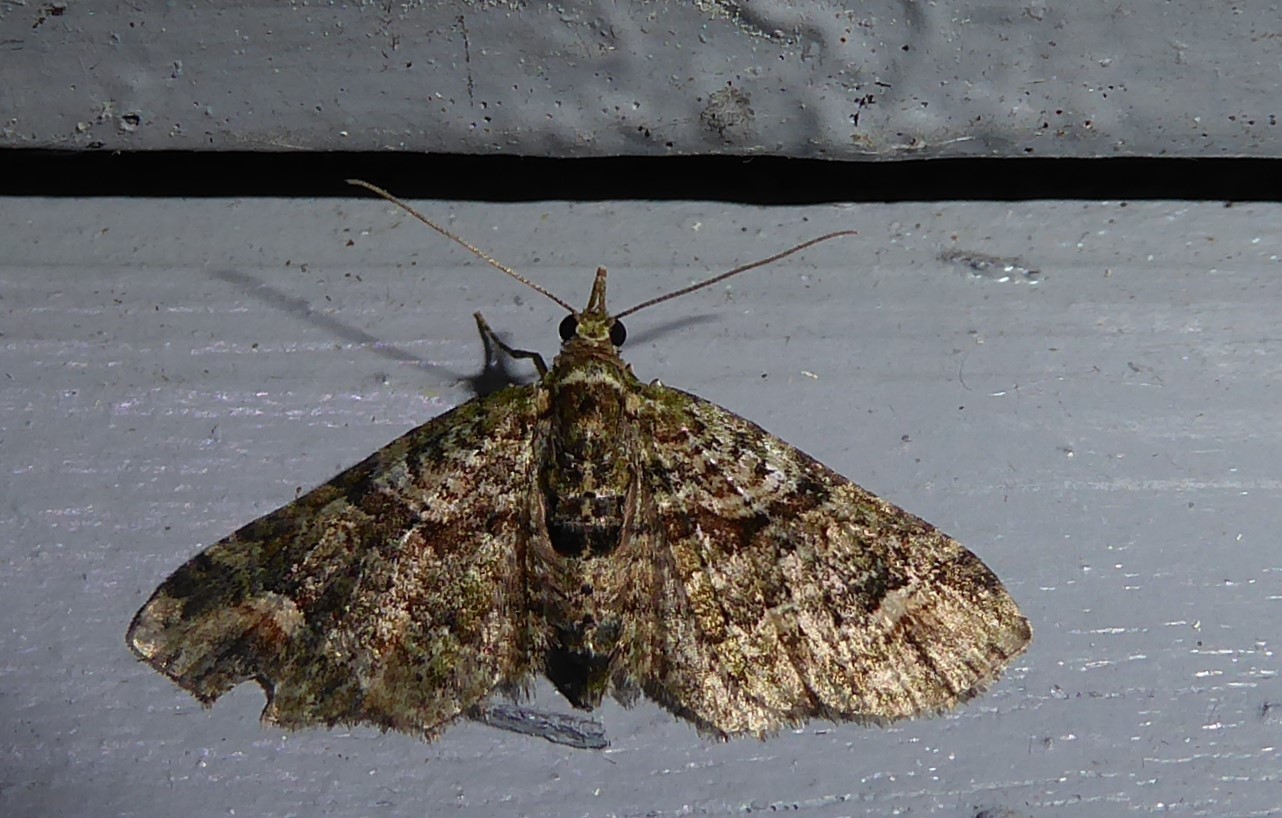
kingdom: Animalia
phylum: Arthropoda
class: Insecta
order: Lepidoptera
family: Geometridae
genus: Idaea
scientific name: Idaea mutanda
